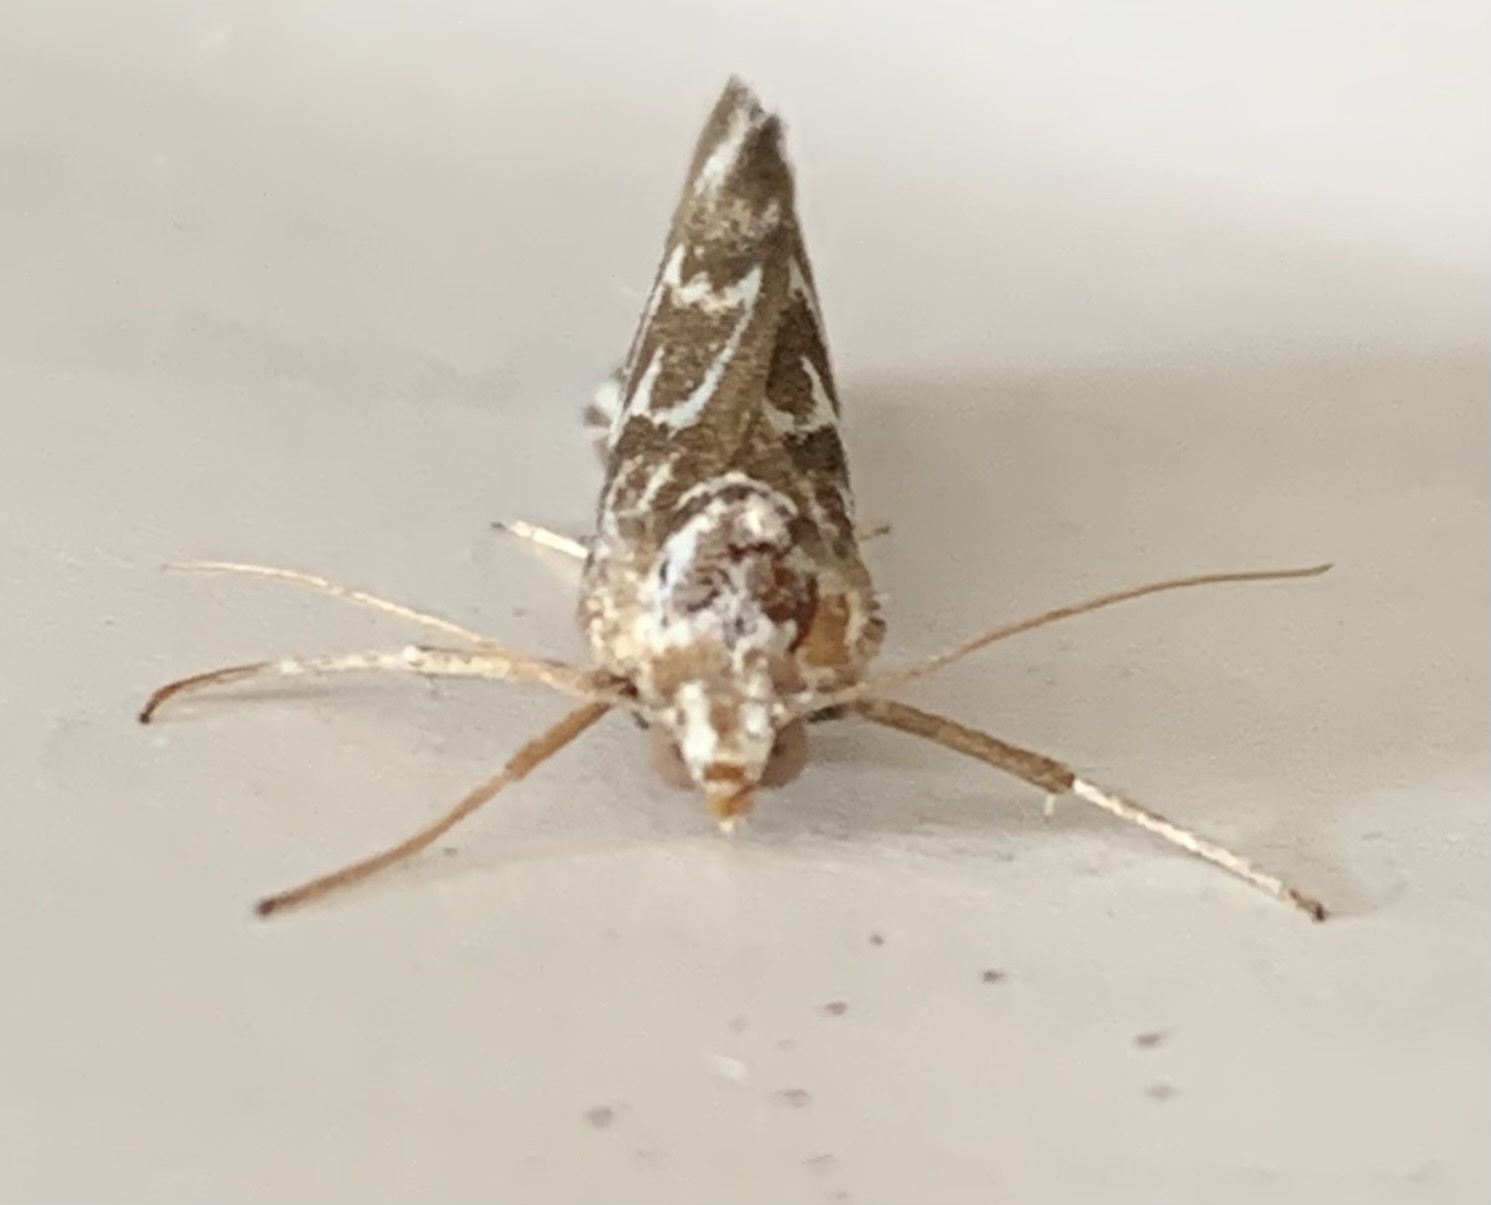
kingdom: Animalia
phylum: Arthropoda
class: Insecta
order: Lepidoptera
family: Geometridae
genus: Argyrophora
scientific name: Argyrophora arcualis
